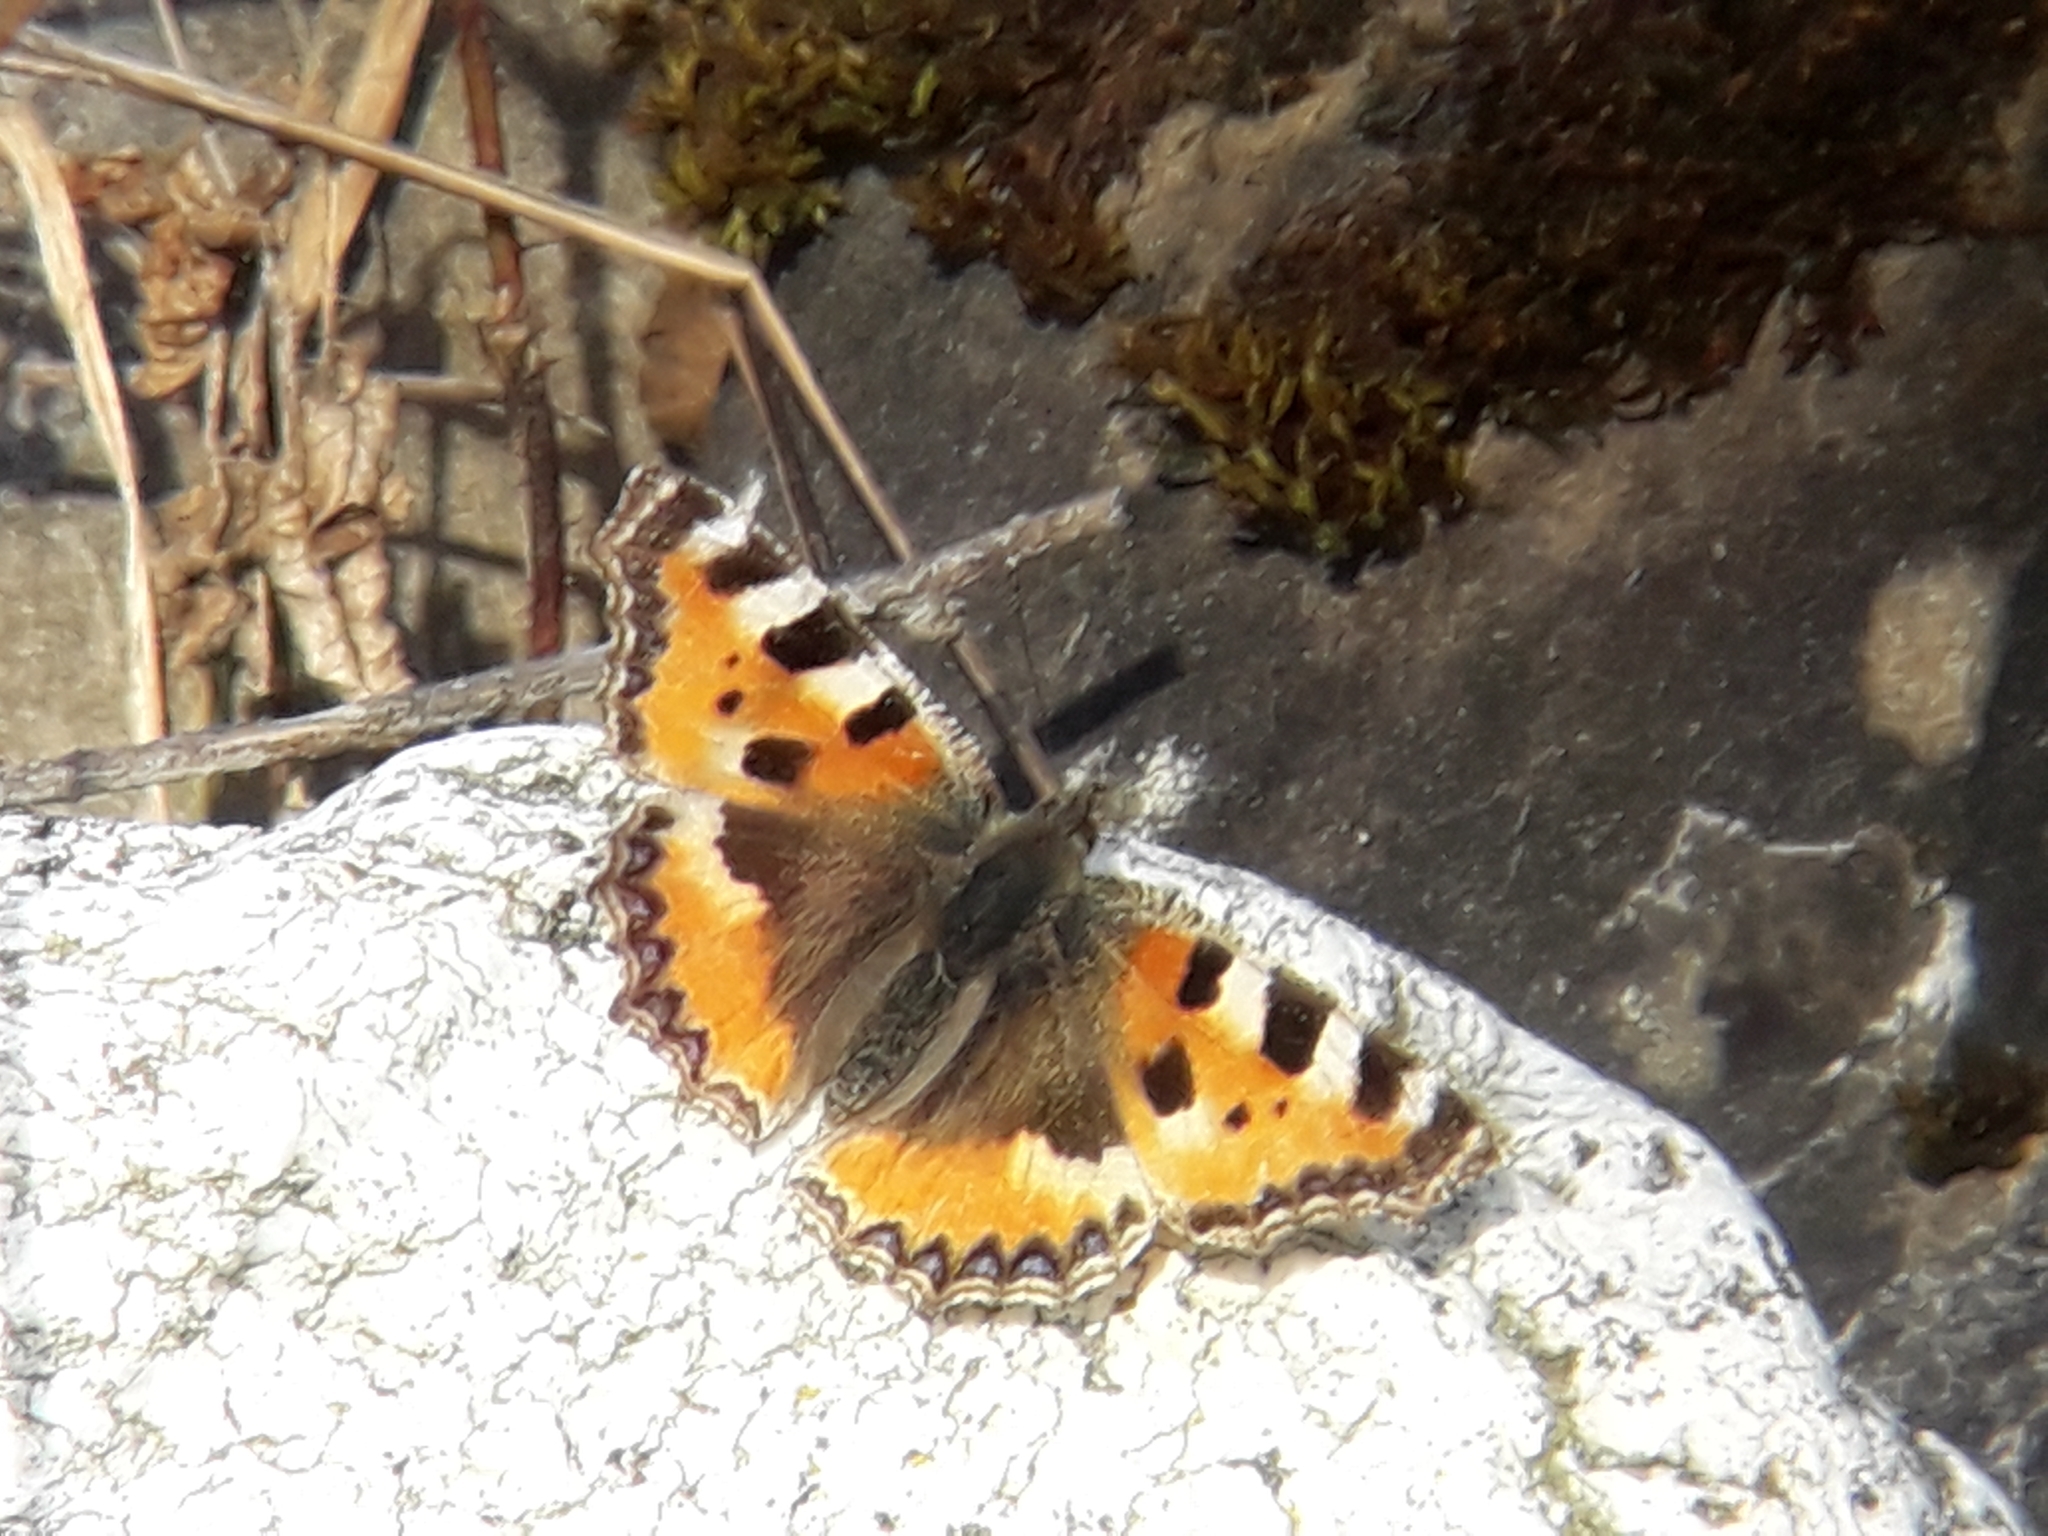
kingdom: Animalia
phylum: Arthropoda
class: Insecta
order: Lepidoptera
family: Nymphalidae
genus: Aglais
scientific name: Aglais urticae
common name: Small tortoiseshell
